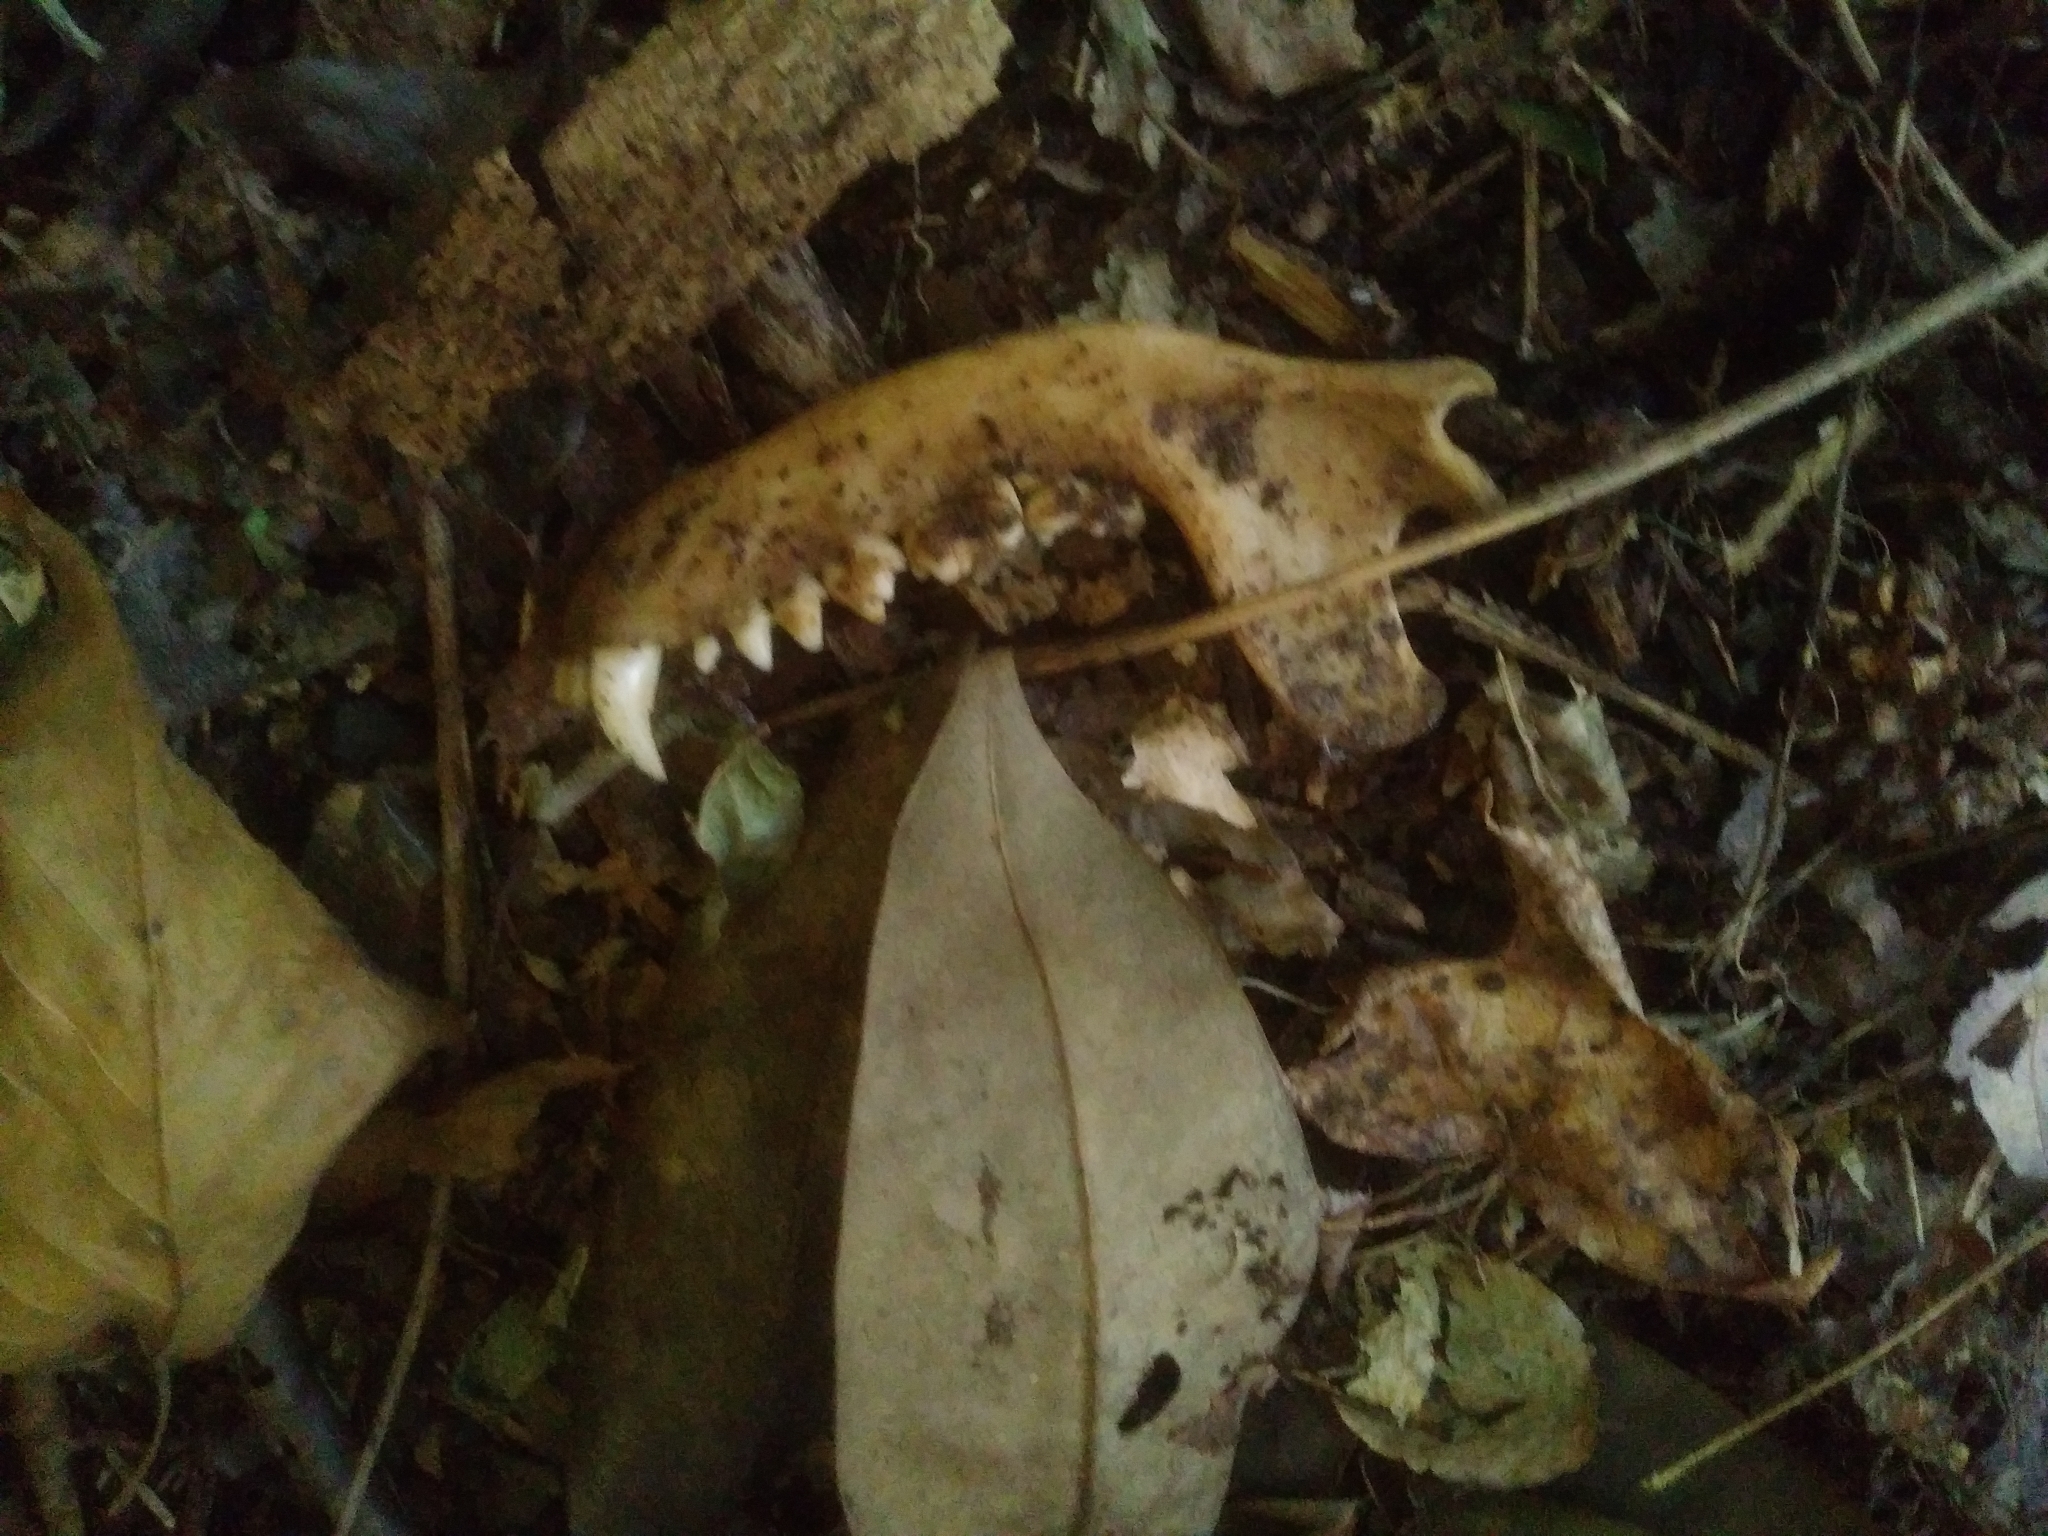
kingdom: Animalia
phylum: Chordata
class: Mammalia
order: Carnivora
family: Procyonidae
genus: Procyon
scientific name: Procyon lotor
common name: Raccoon
